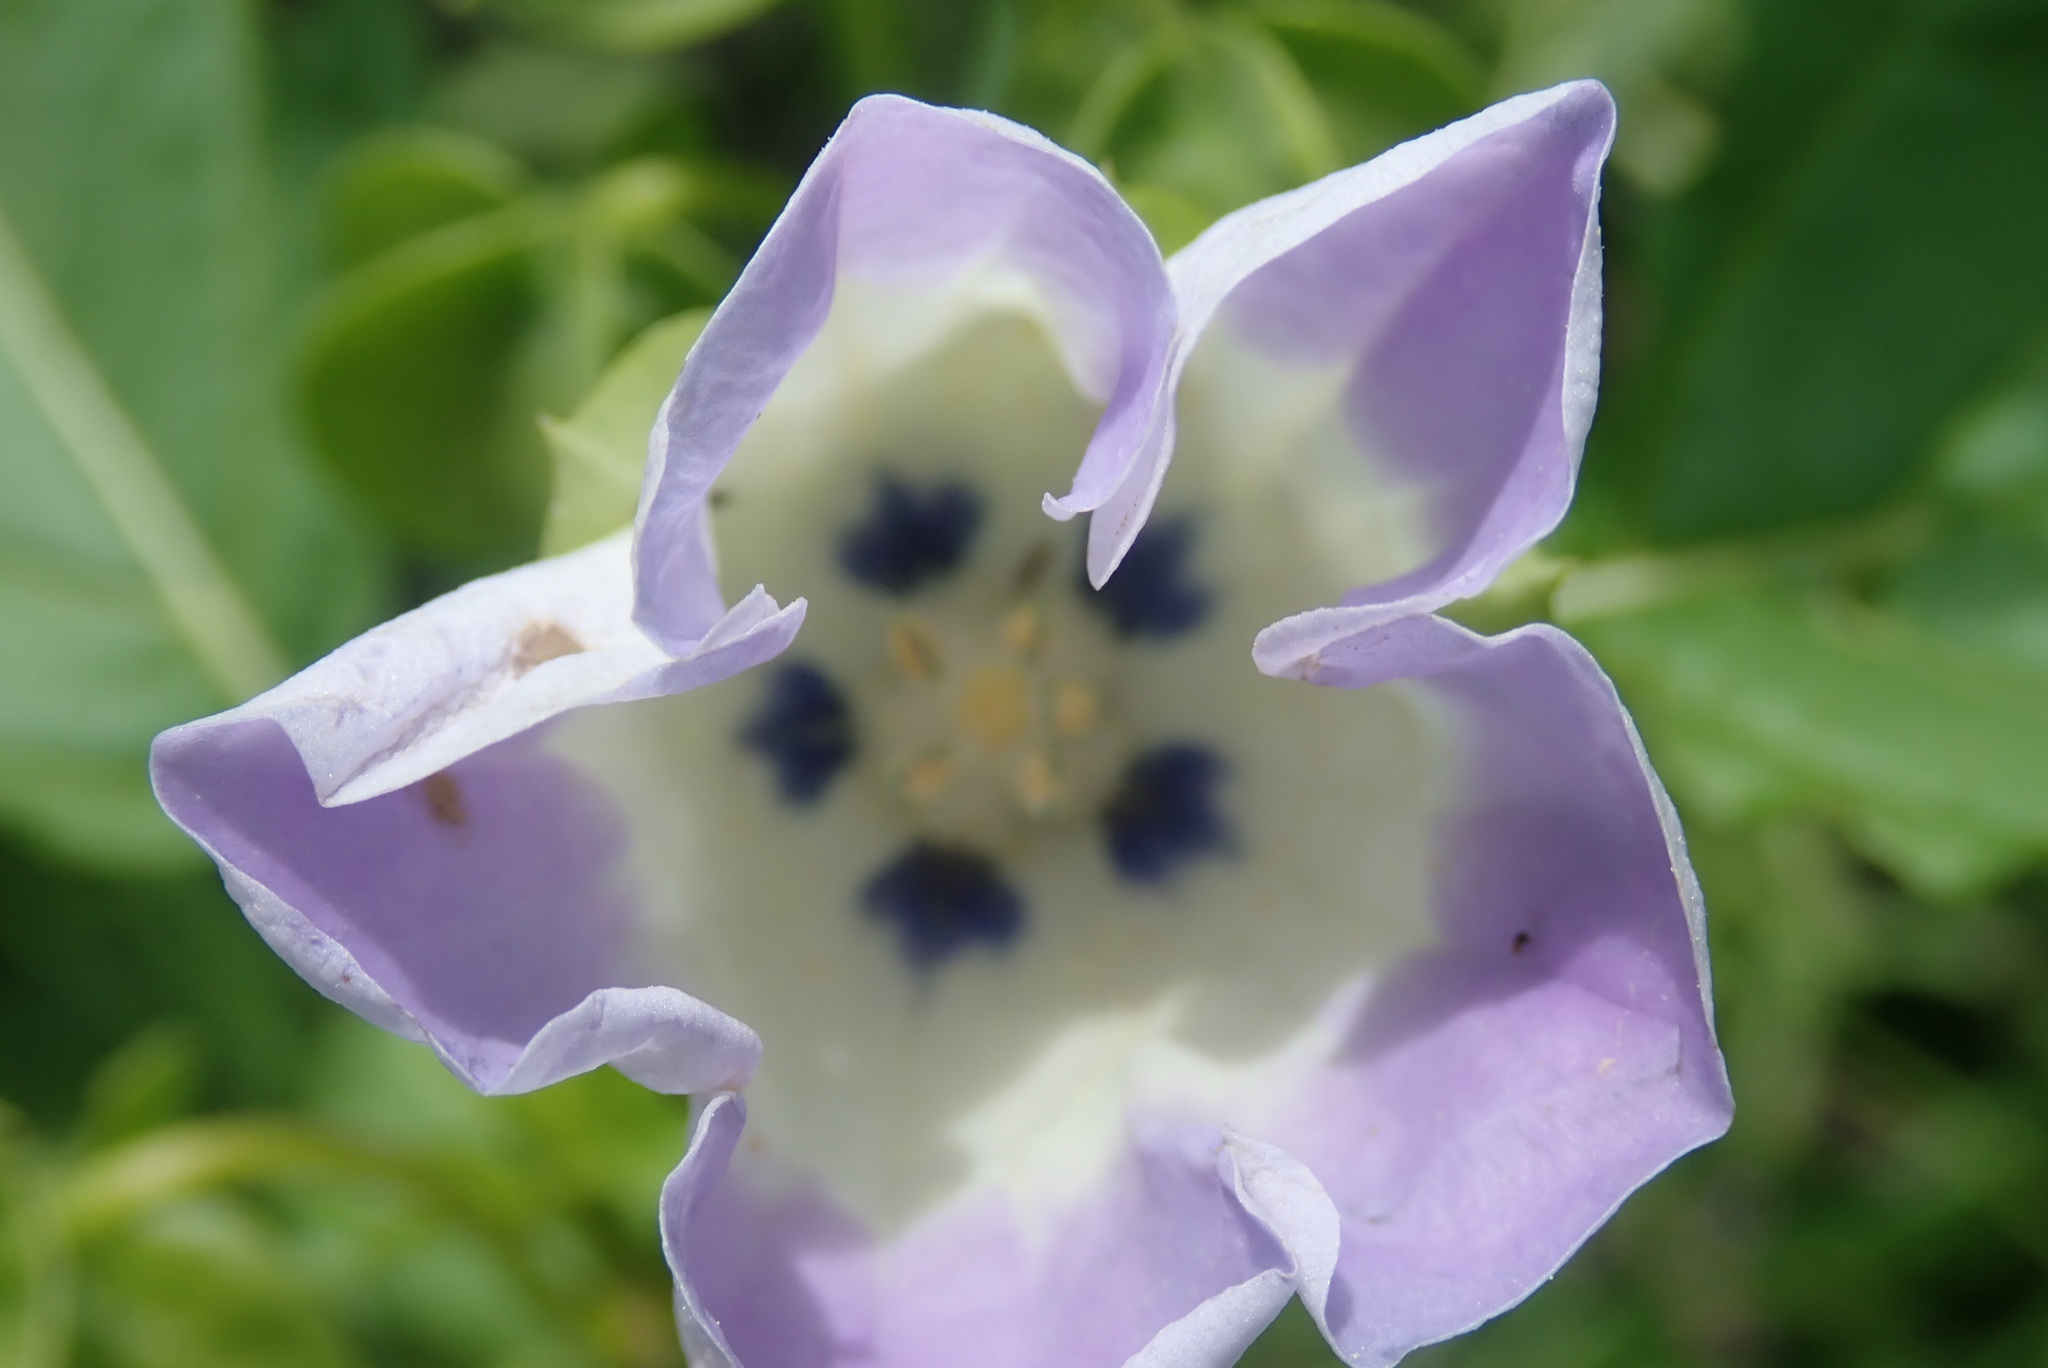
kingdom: Plantae
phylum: Tracheophyta
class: Magnoliopsida
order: Solanales
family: Solanaceae
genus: Nicandra
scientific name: Nicandra physalodes
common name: Apple-of-peru
